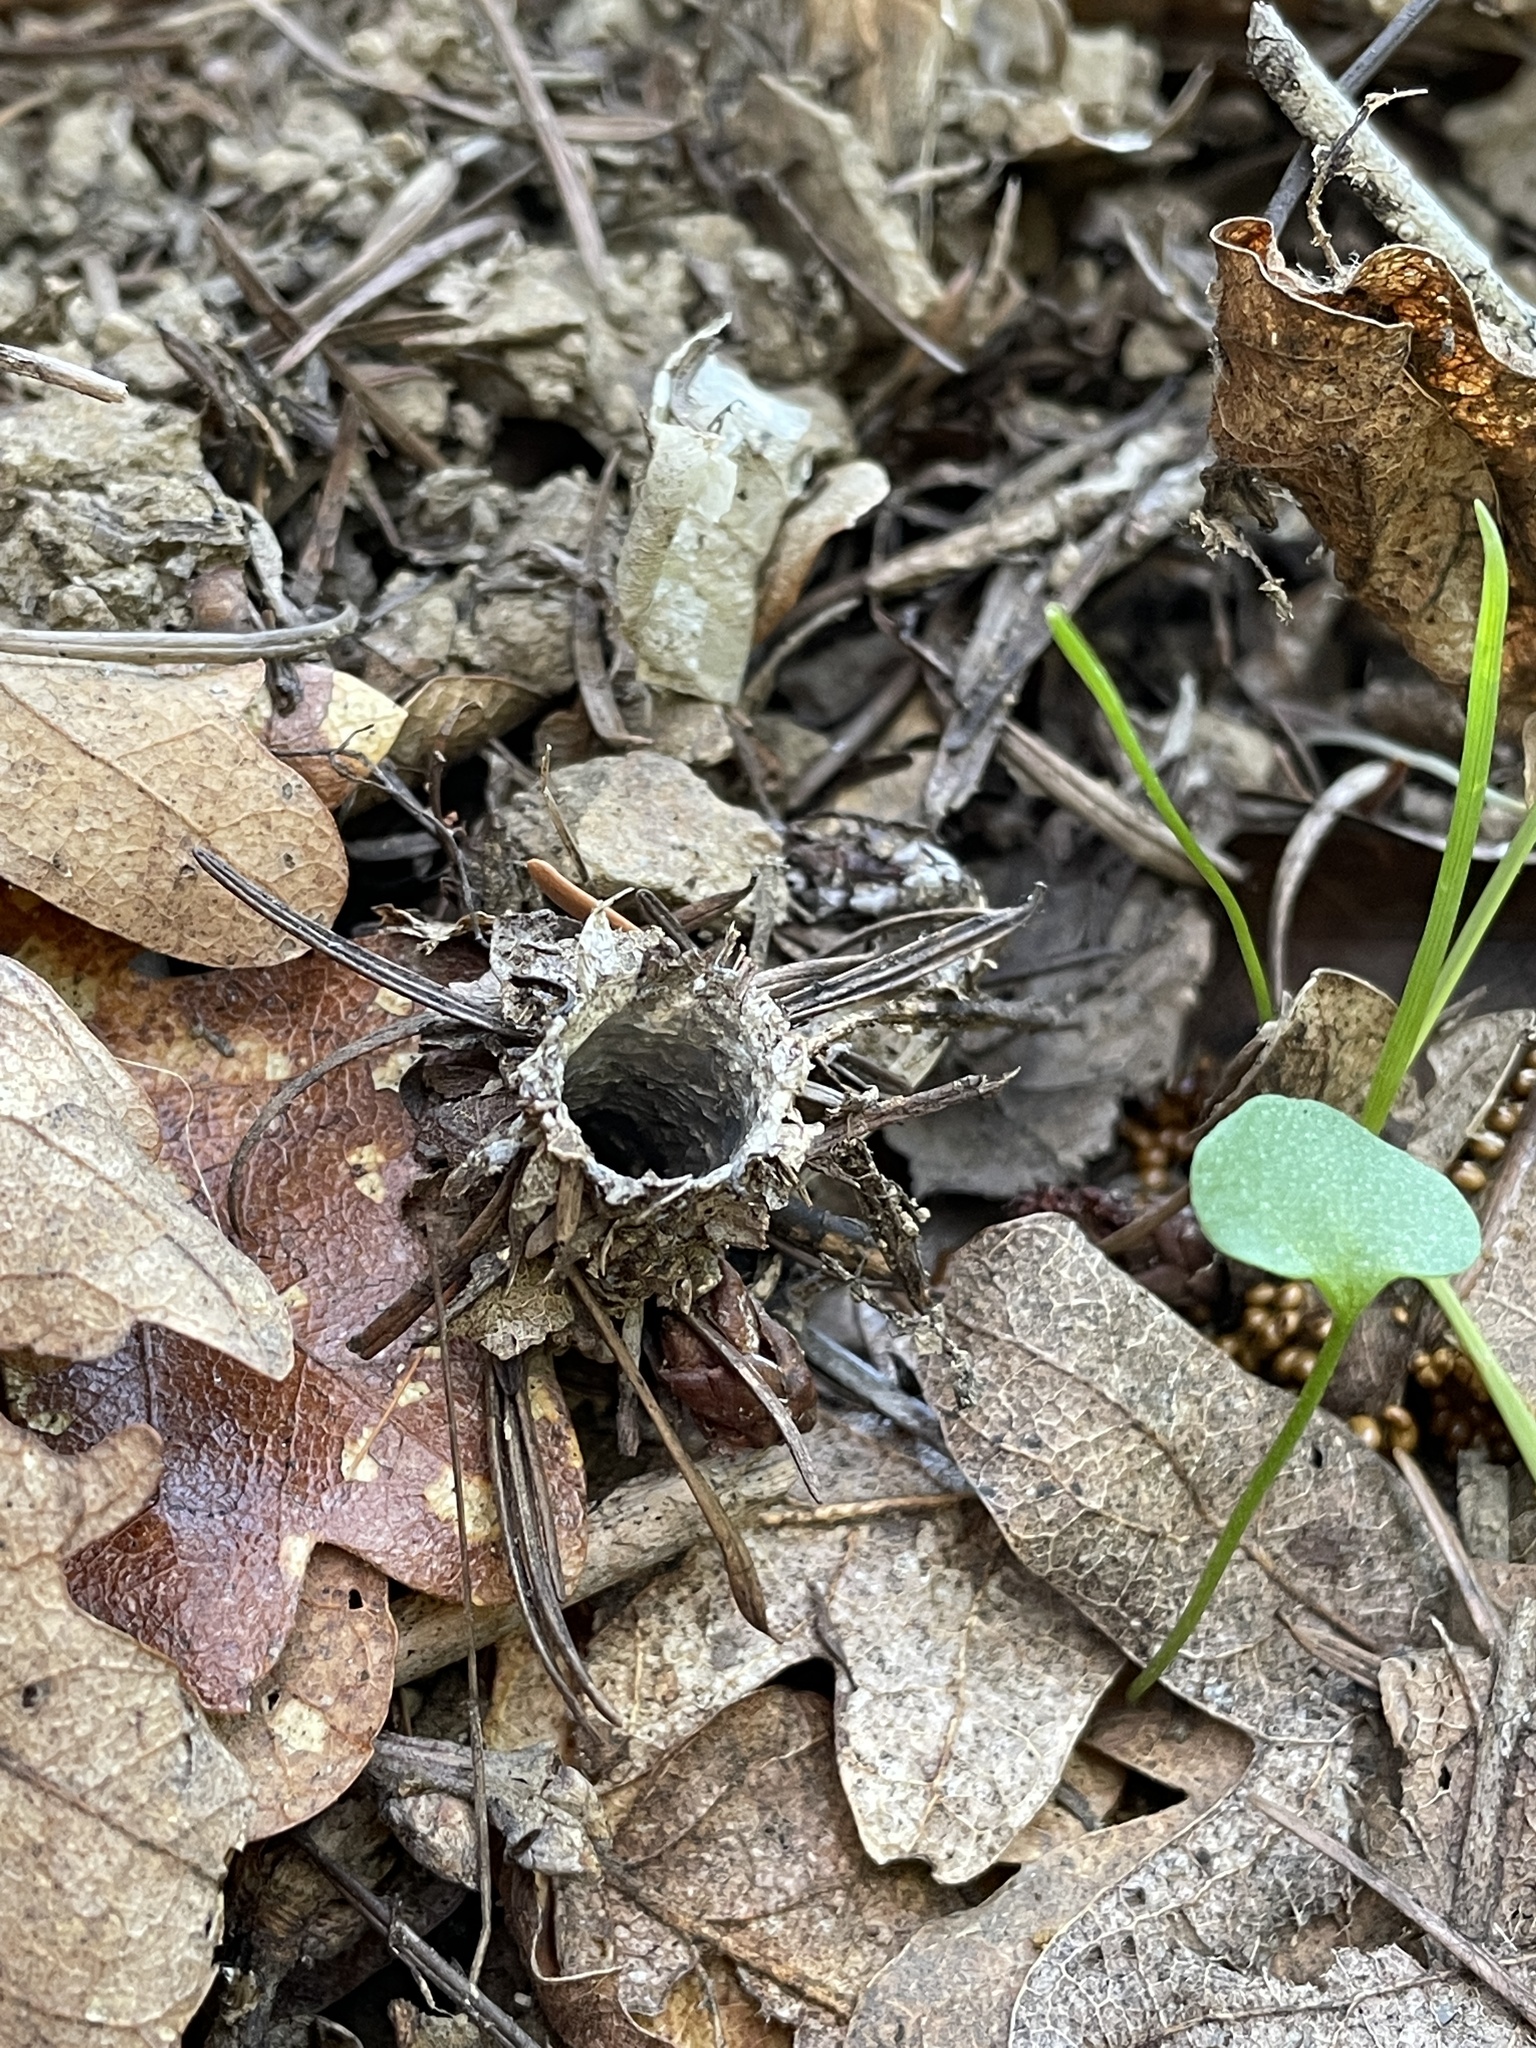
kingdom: Animalia
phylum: Arthropoda
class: Arachnida
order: Araneae
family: Antrodiaetidae
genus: Atypoides
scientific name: Atypoides riversi
